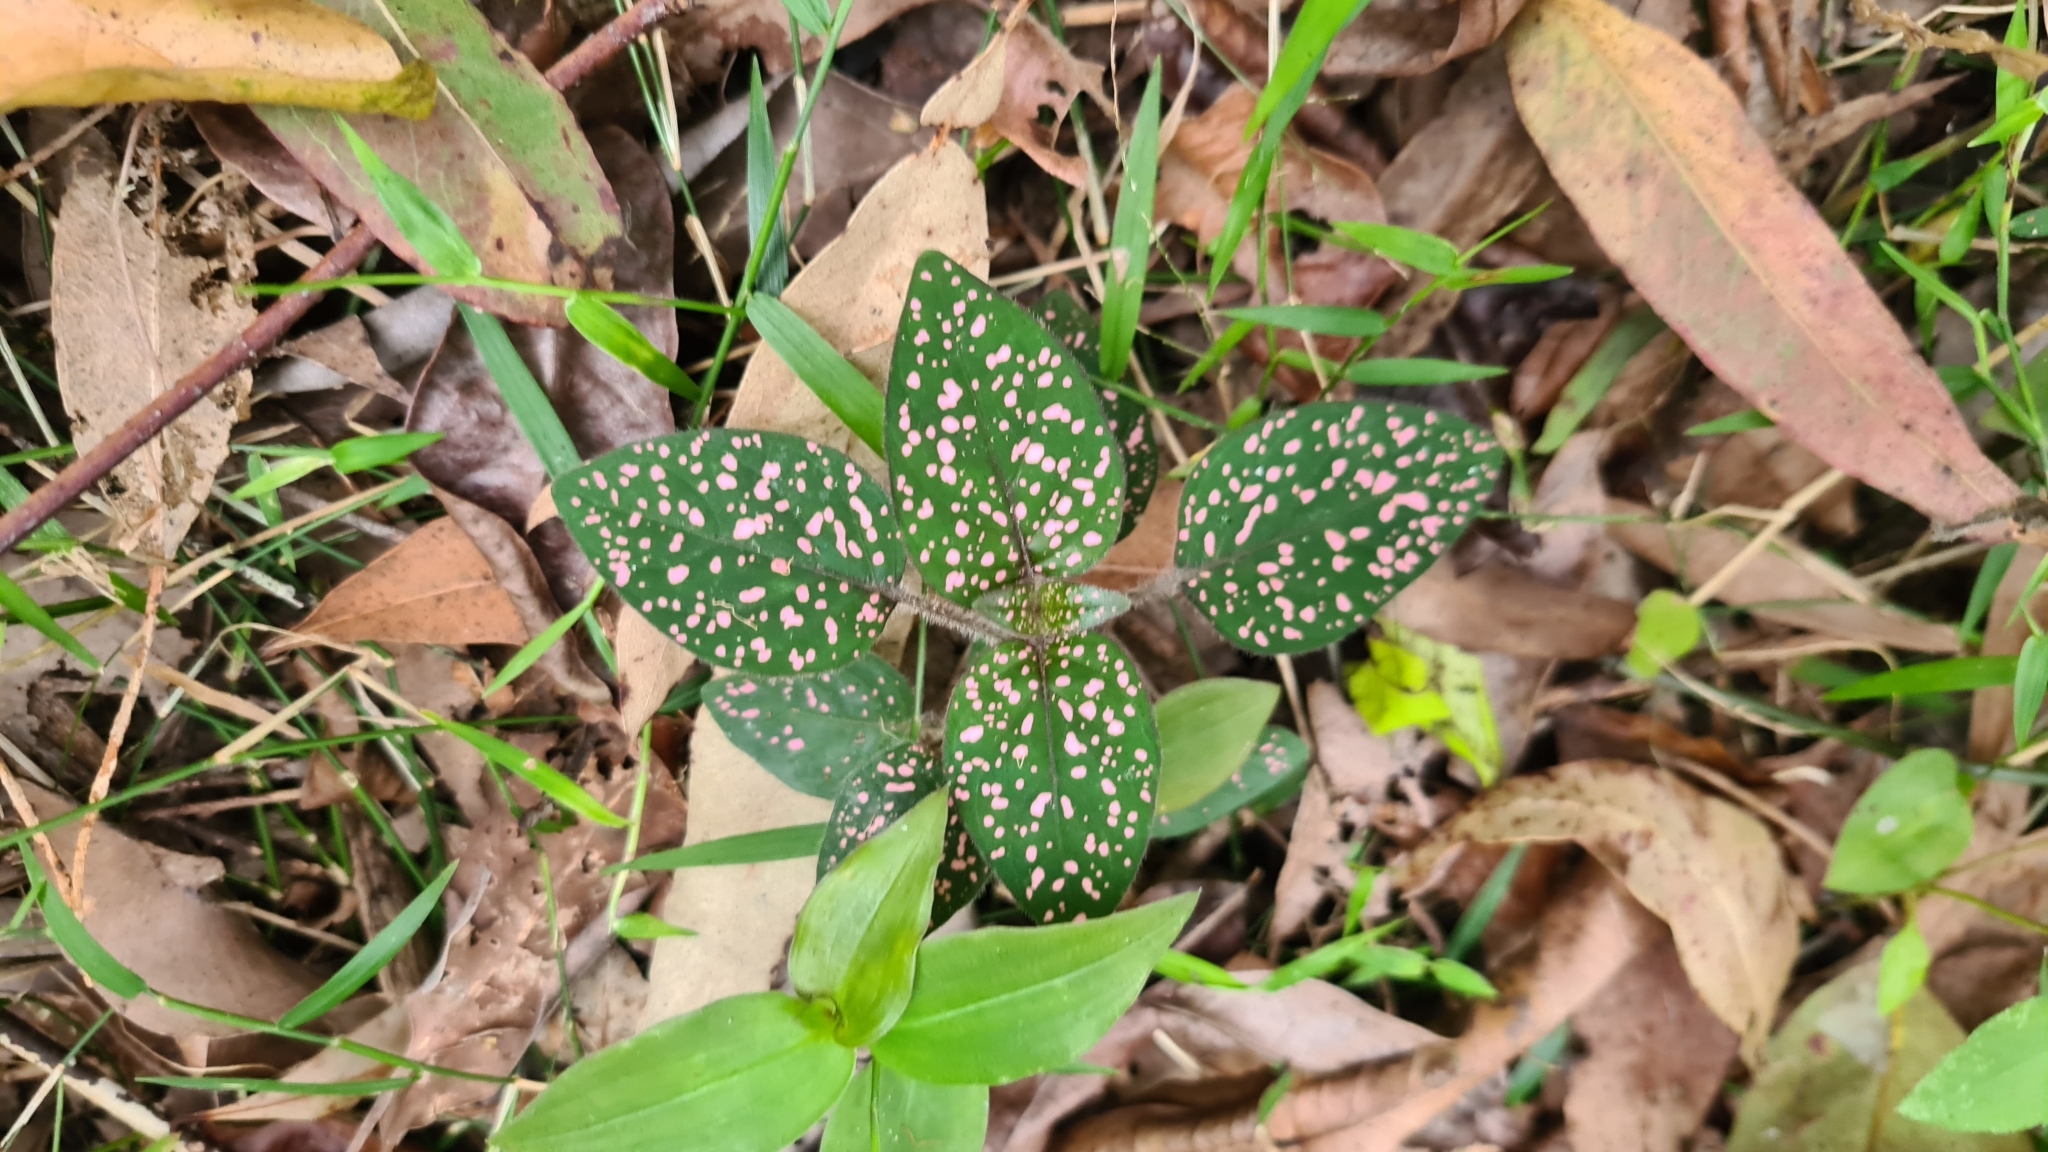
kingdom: Plantae
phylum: Tracheophyta
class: Magnoliopsida
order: Lamiales
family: Acanthaceae
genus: Hypoestes
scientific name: Hypoestes phyllostachya
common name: Polkadot-plant
